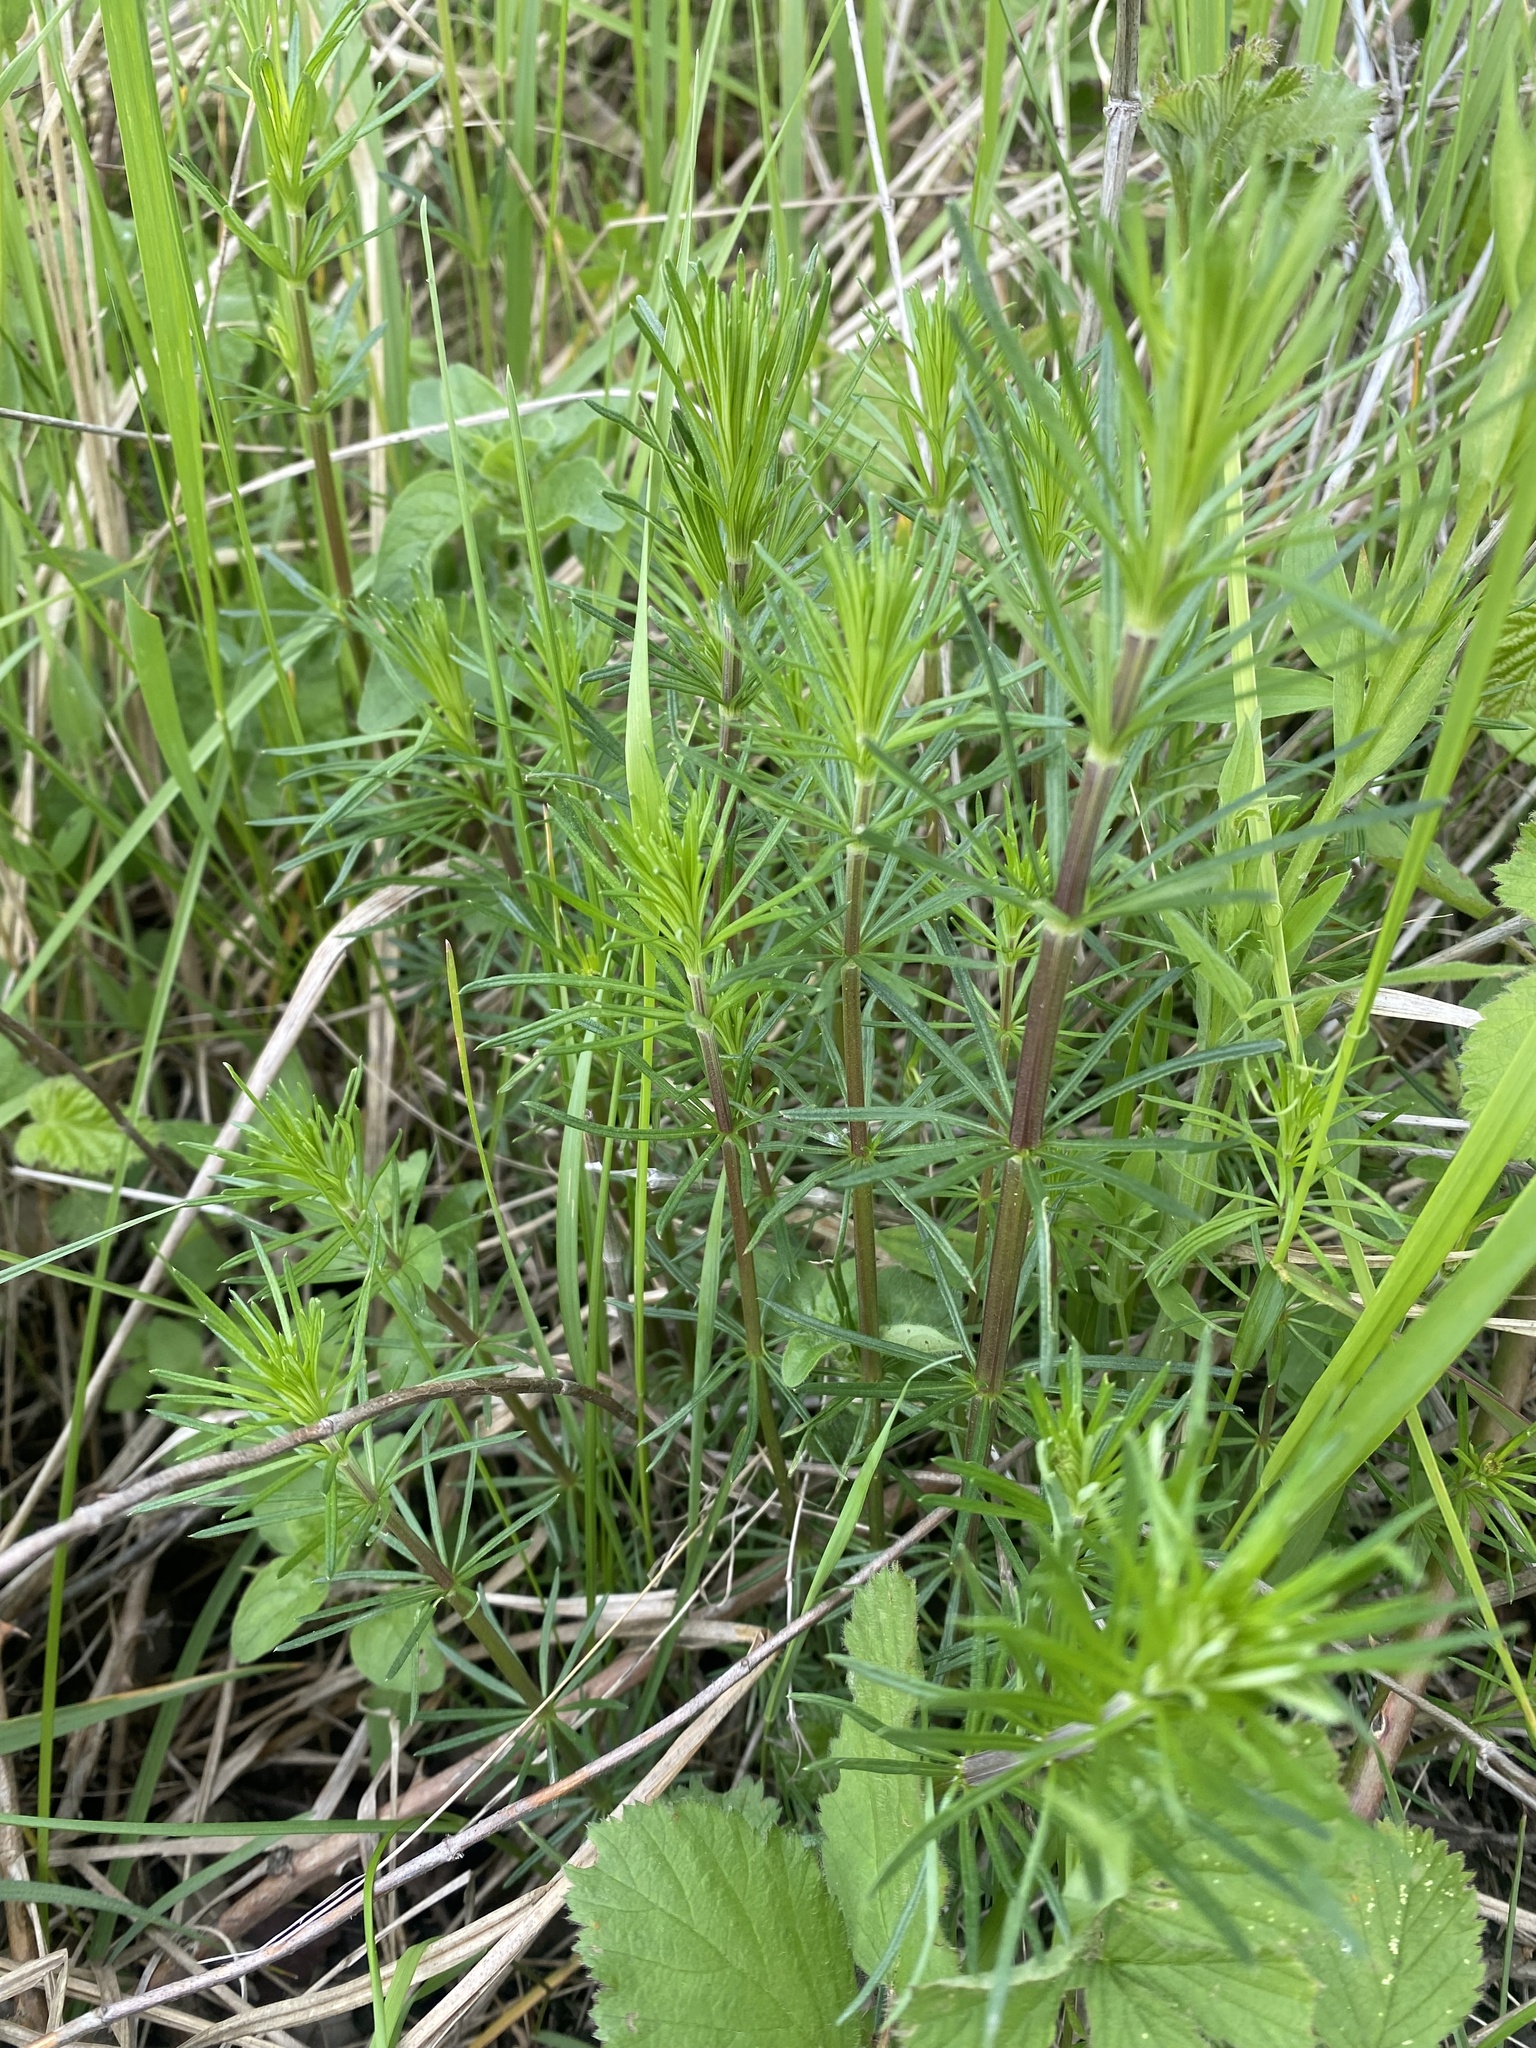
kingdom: Plantae
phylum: Tracheophyta
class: Magnoliopsida
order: Gentianales
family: Rubiaceae
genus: Galium
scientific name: Galium verum
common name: Lady's bedstraw
